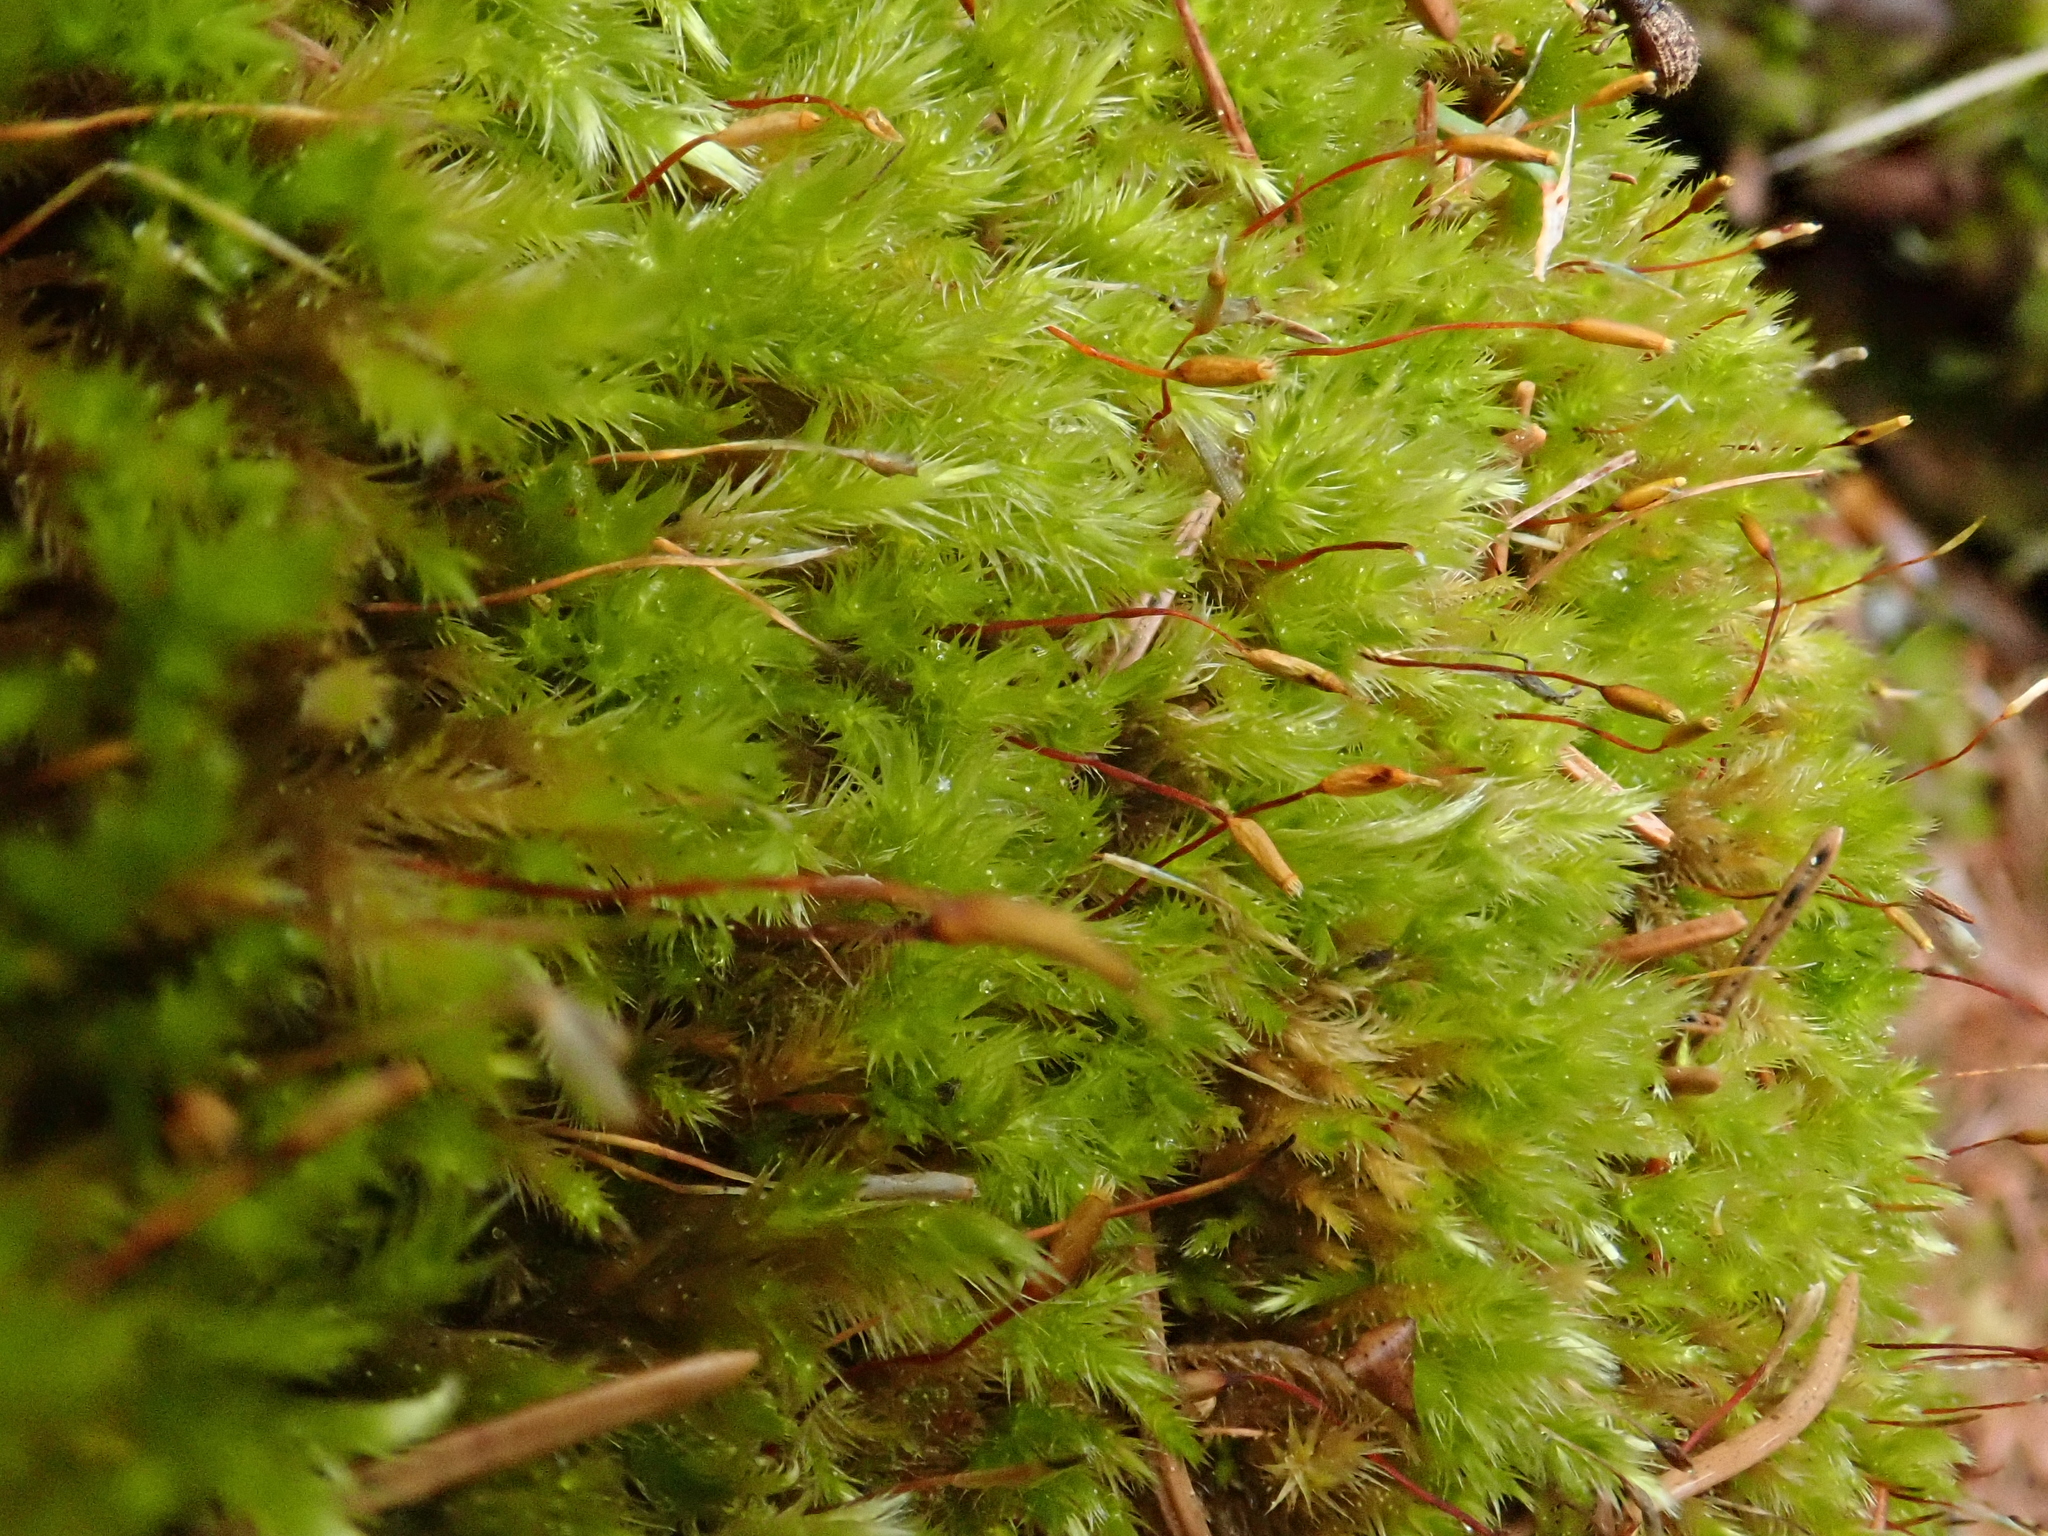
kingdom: Plantae
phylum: Bryophyta
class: Bryopsida
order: Hypnales
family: Brachytheciaceae
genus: Homalothecium
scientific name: Homalothecium sericeum
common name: Silky wall feather-moss
